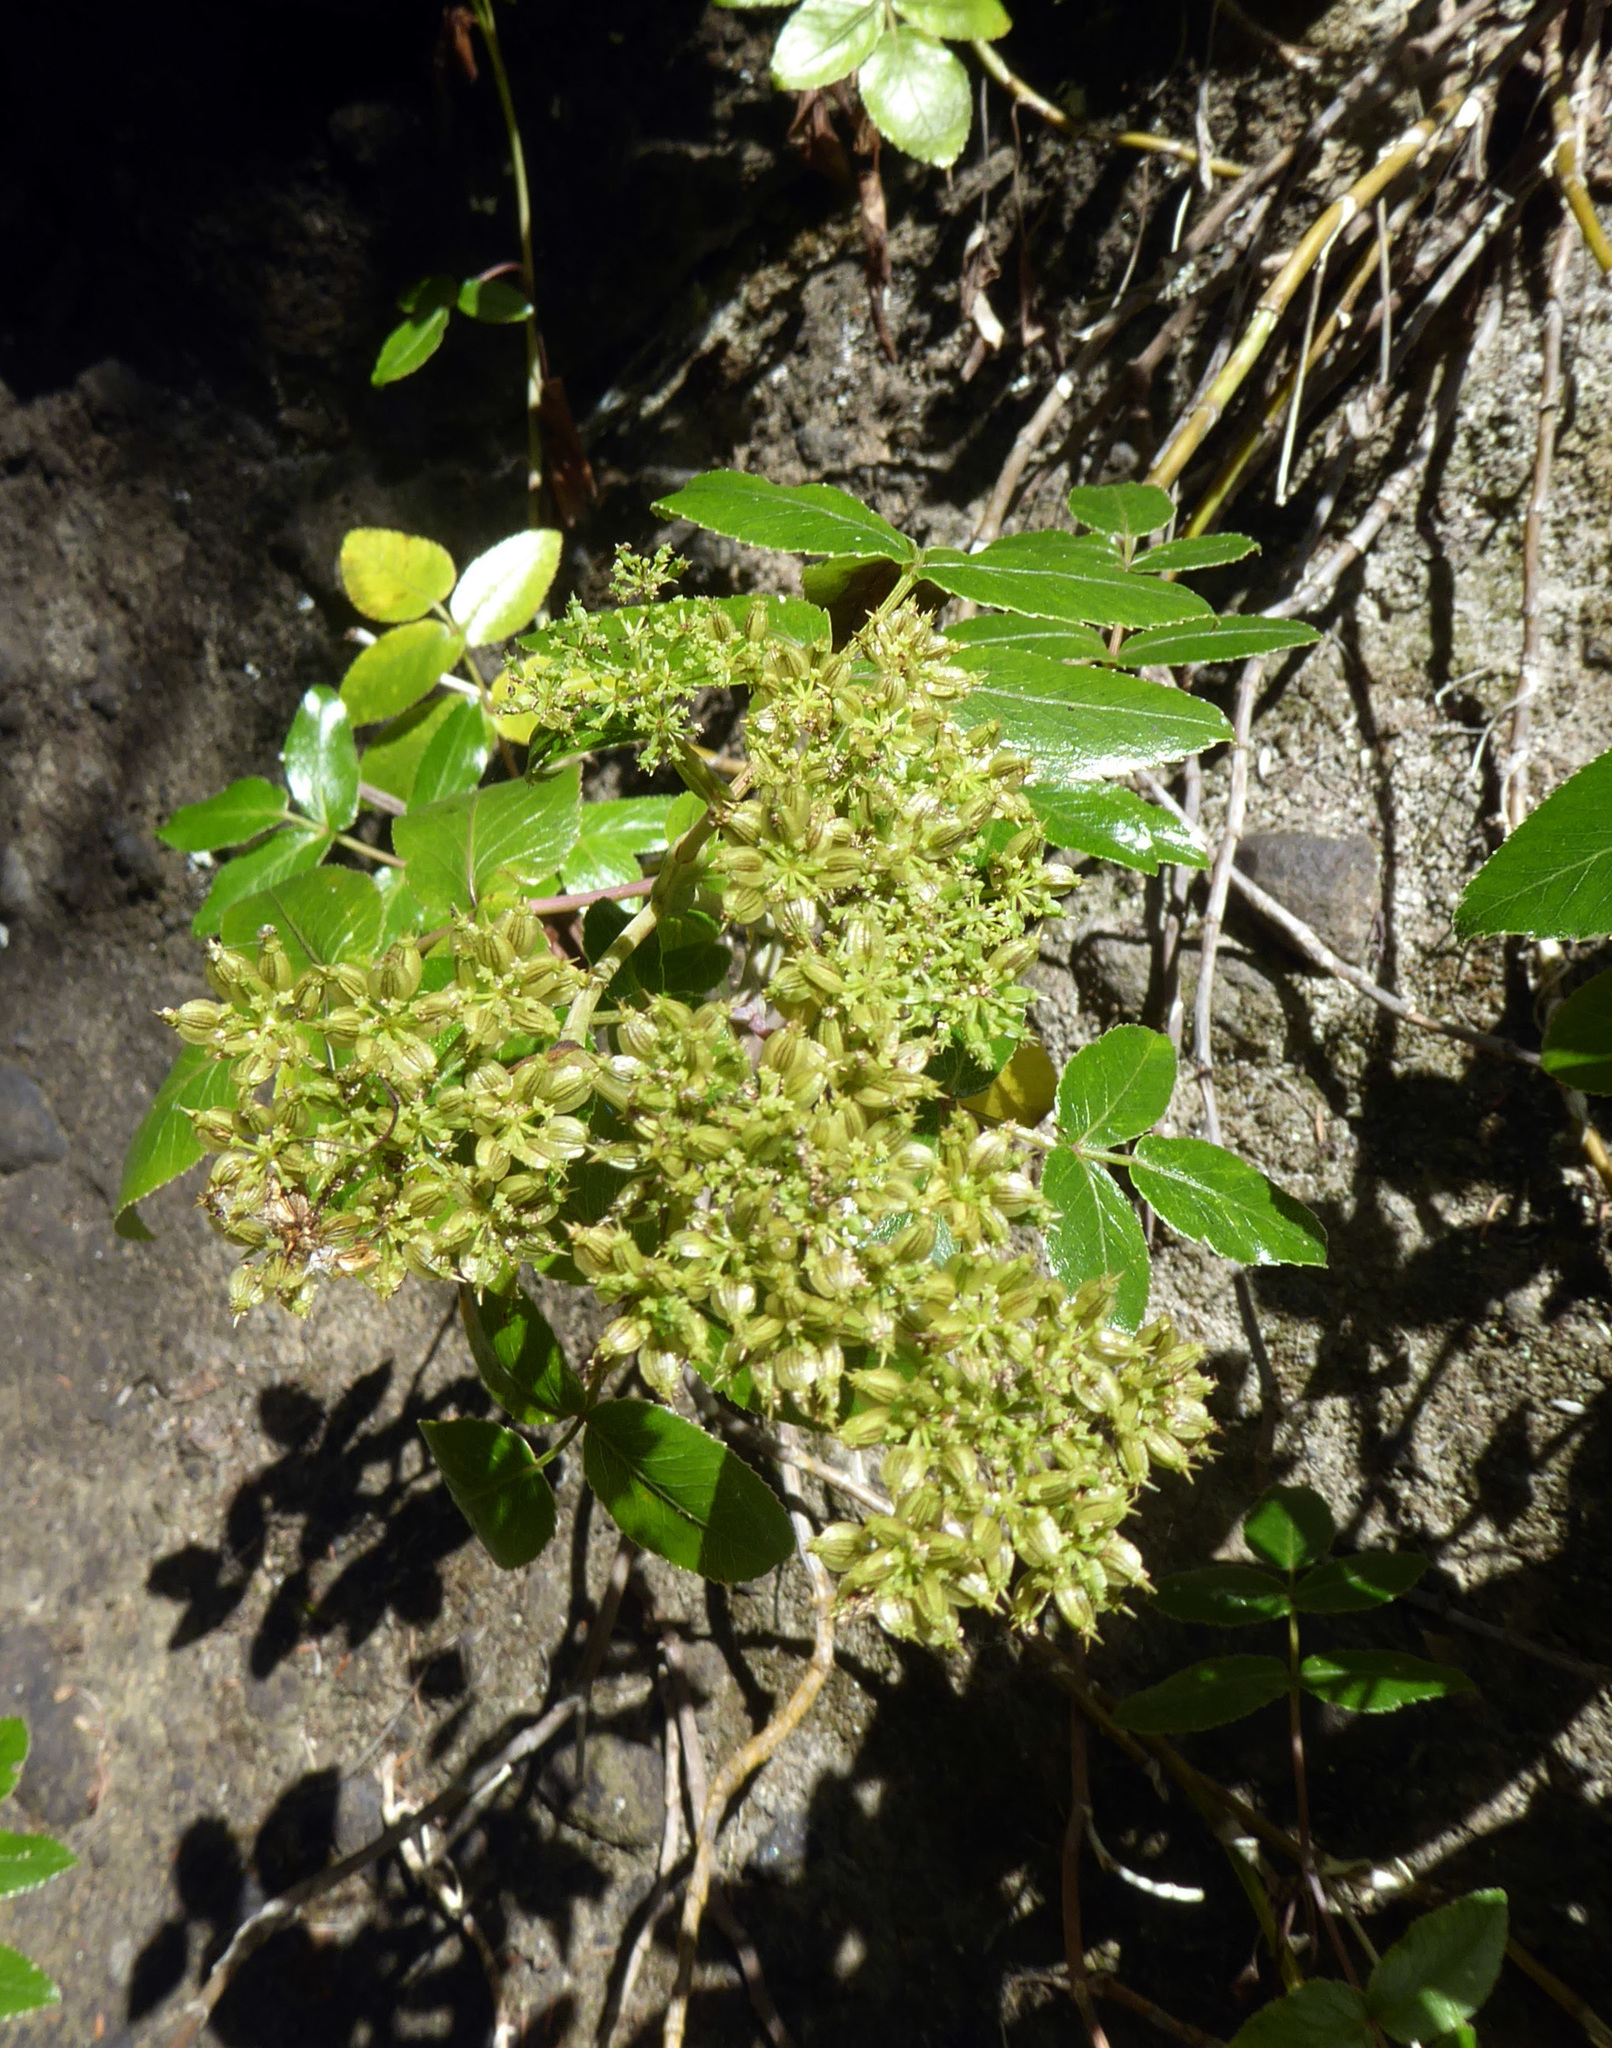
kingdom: Plantae
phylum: Tracheophyta
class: Magnoliopsida
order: Apiales
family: Apiaceae
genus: Scandia
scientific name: Scandia rosifolia
